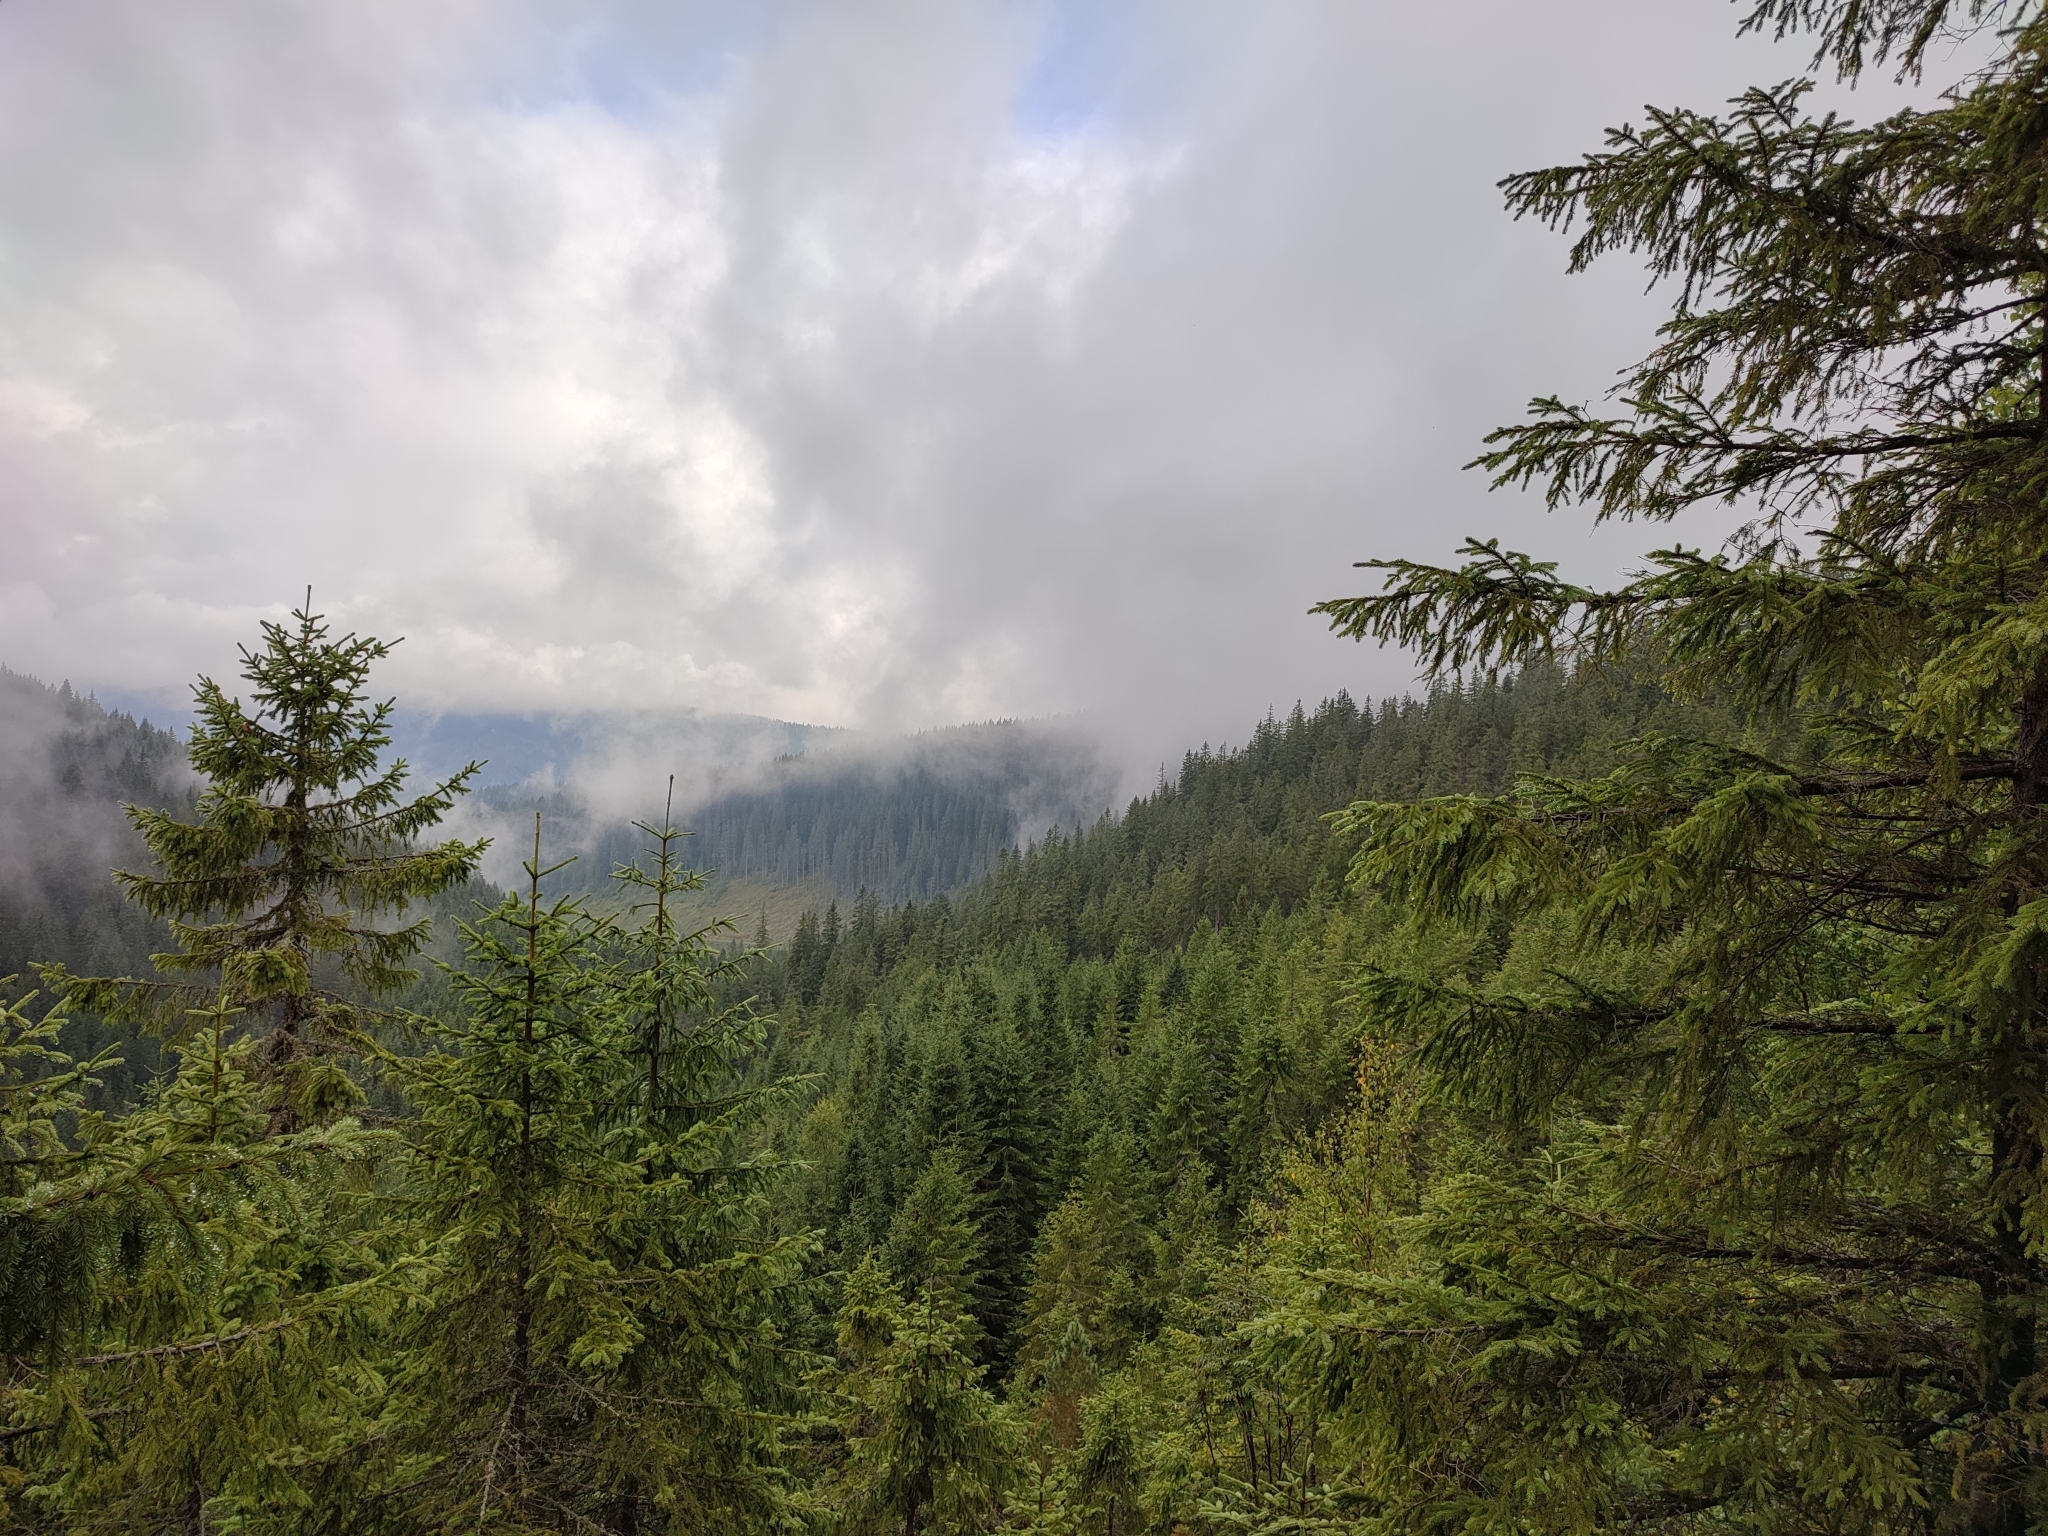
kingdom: Plantae
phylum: Tracheophyta
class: Pinopsida
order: Pinales
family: Pinaceae
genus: Picea
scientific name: Picea abies
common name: Norway spruce
